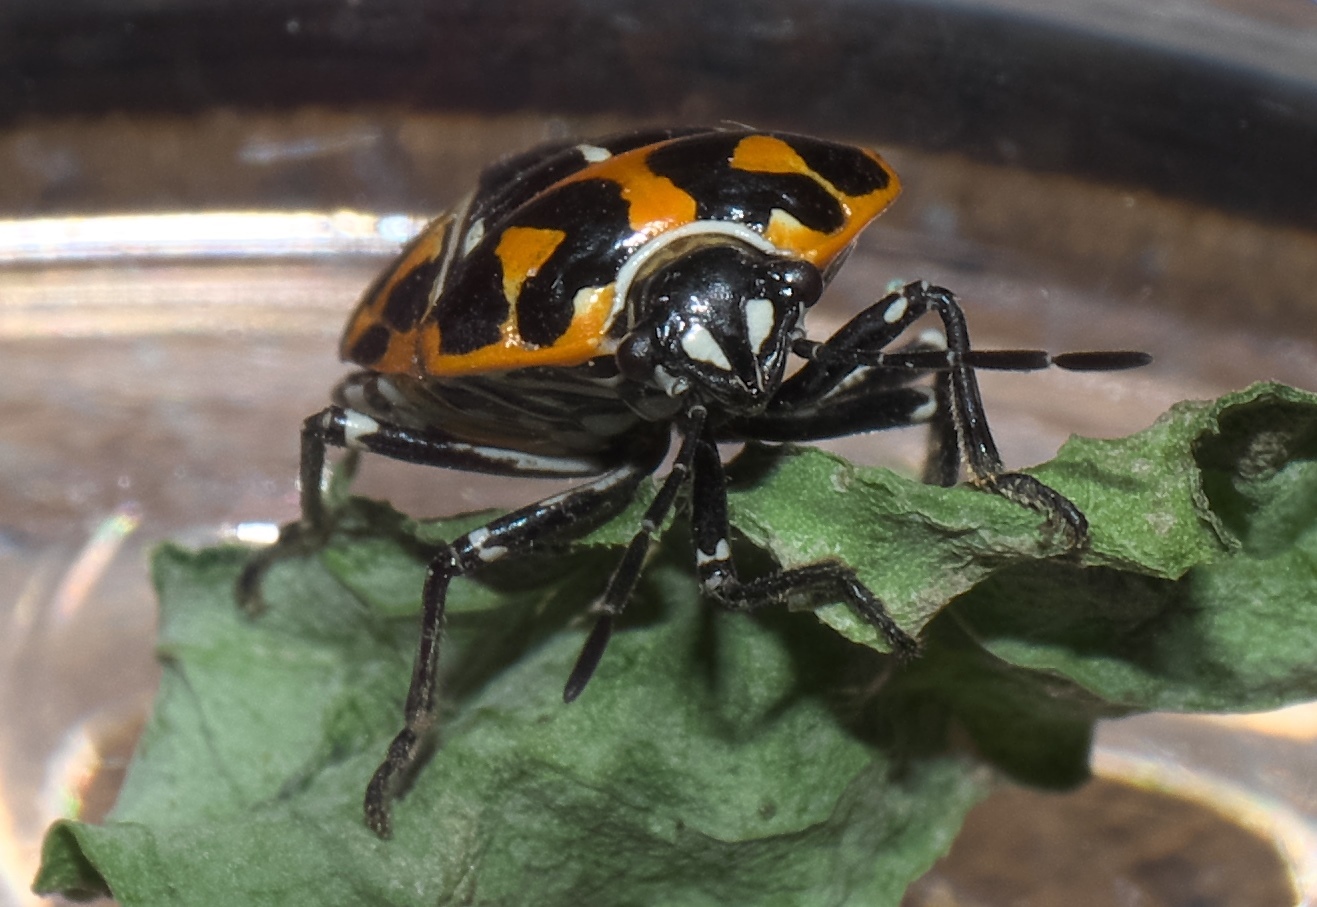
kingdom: Animalia
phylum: Arthropoda
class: Insecta
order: Hemiptera
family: Pentatomidae
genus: Murgantia
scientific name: Murgantia histrionica
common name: Harlequin bug
